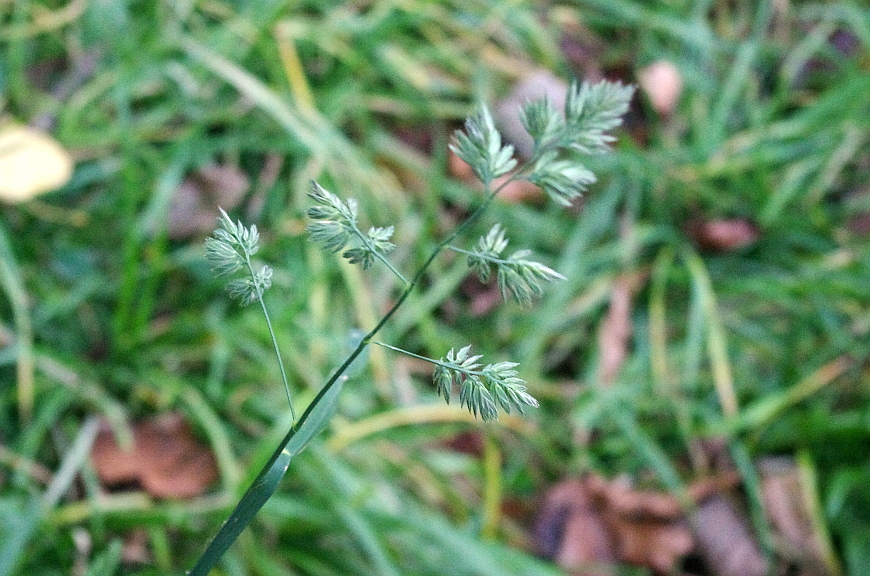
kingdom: Plantae
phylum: Tracheophyta
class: Liliopsida
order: Poales
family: Poaceae
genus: Dactylis
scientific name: Dactylis glomerata
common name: Orchardgrass
